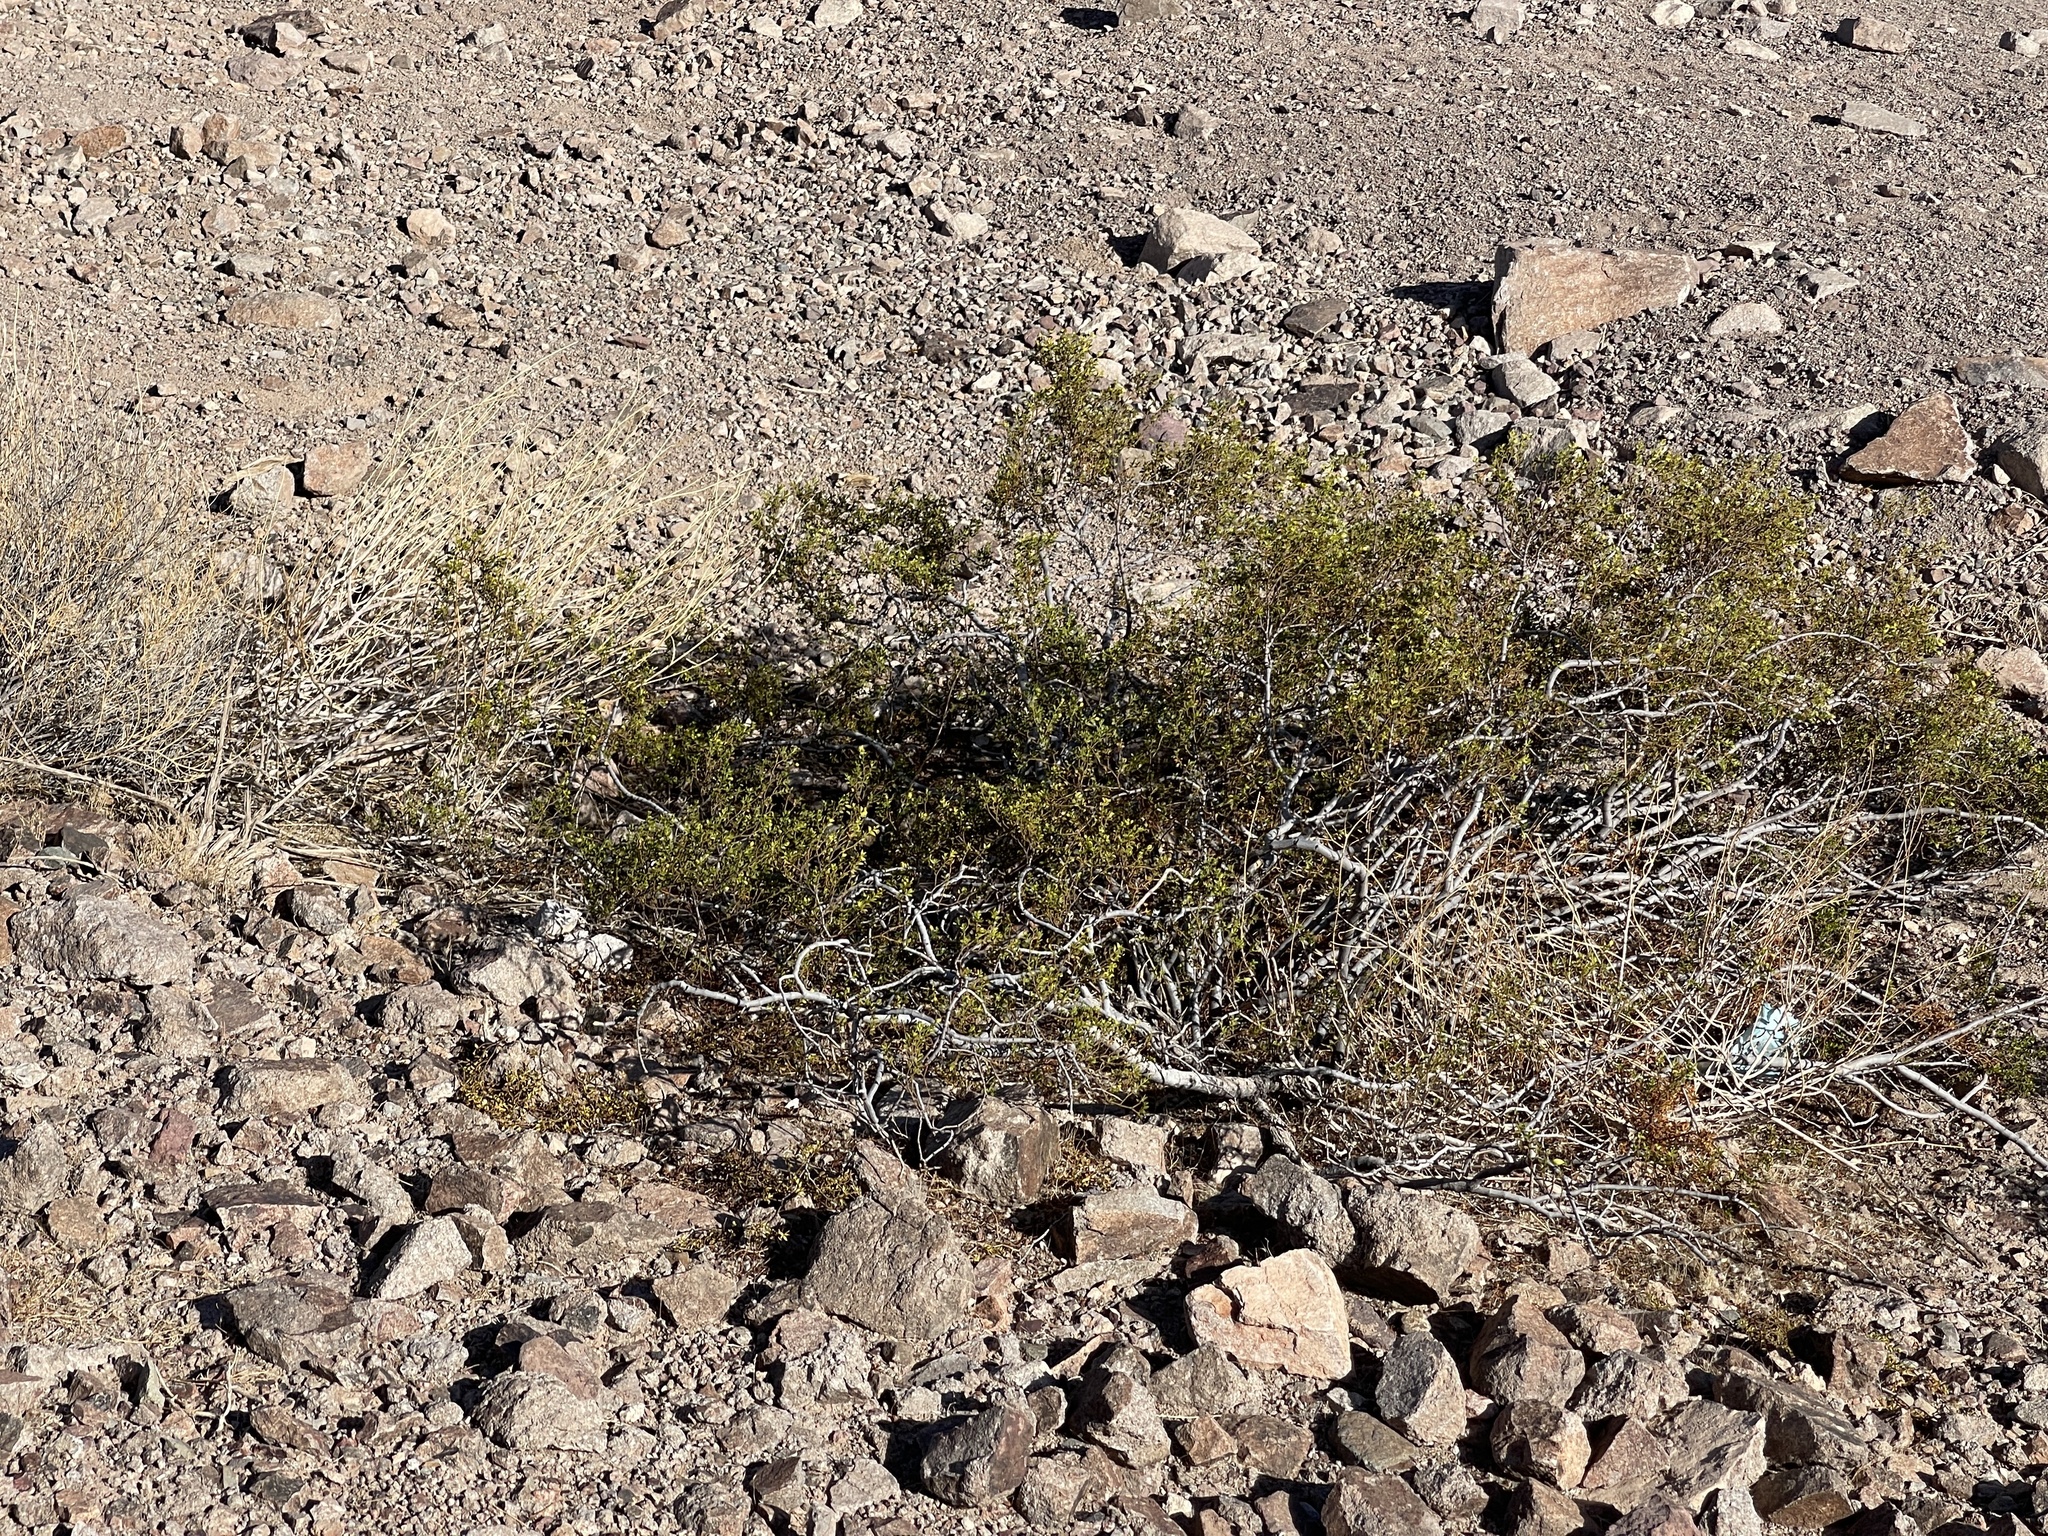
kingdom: Plantae
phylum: Tracheophyta
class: Magnoliopsida
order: Zygophyllales
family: Zygophyllaceae
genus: Larrea
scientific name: Larrea tridentata
